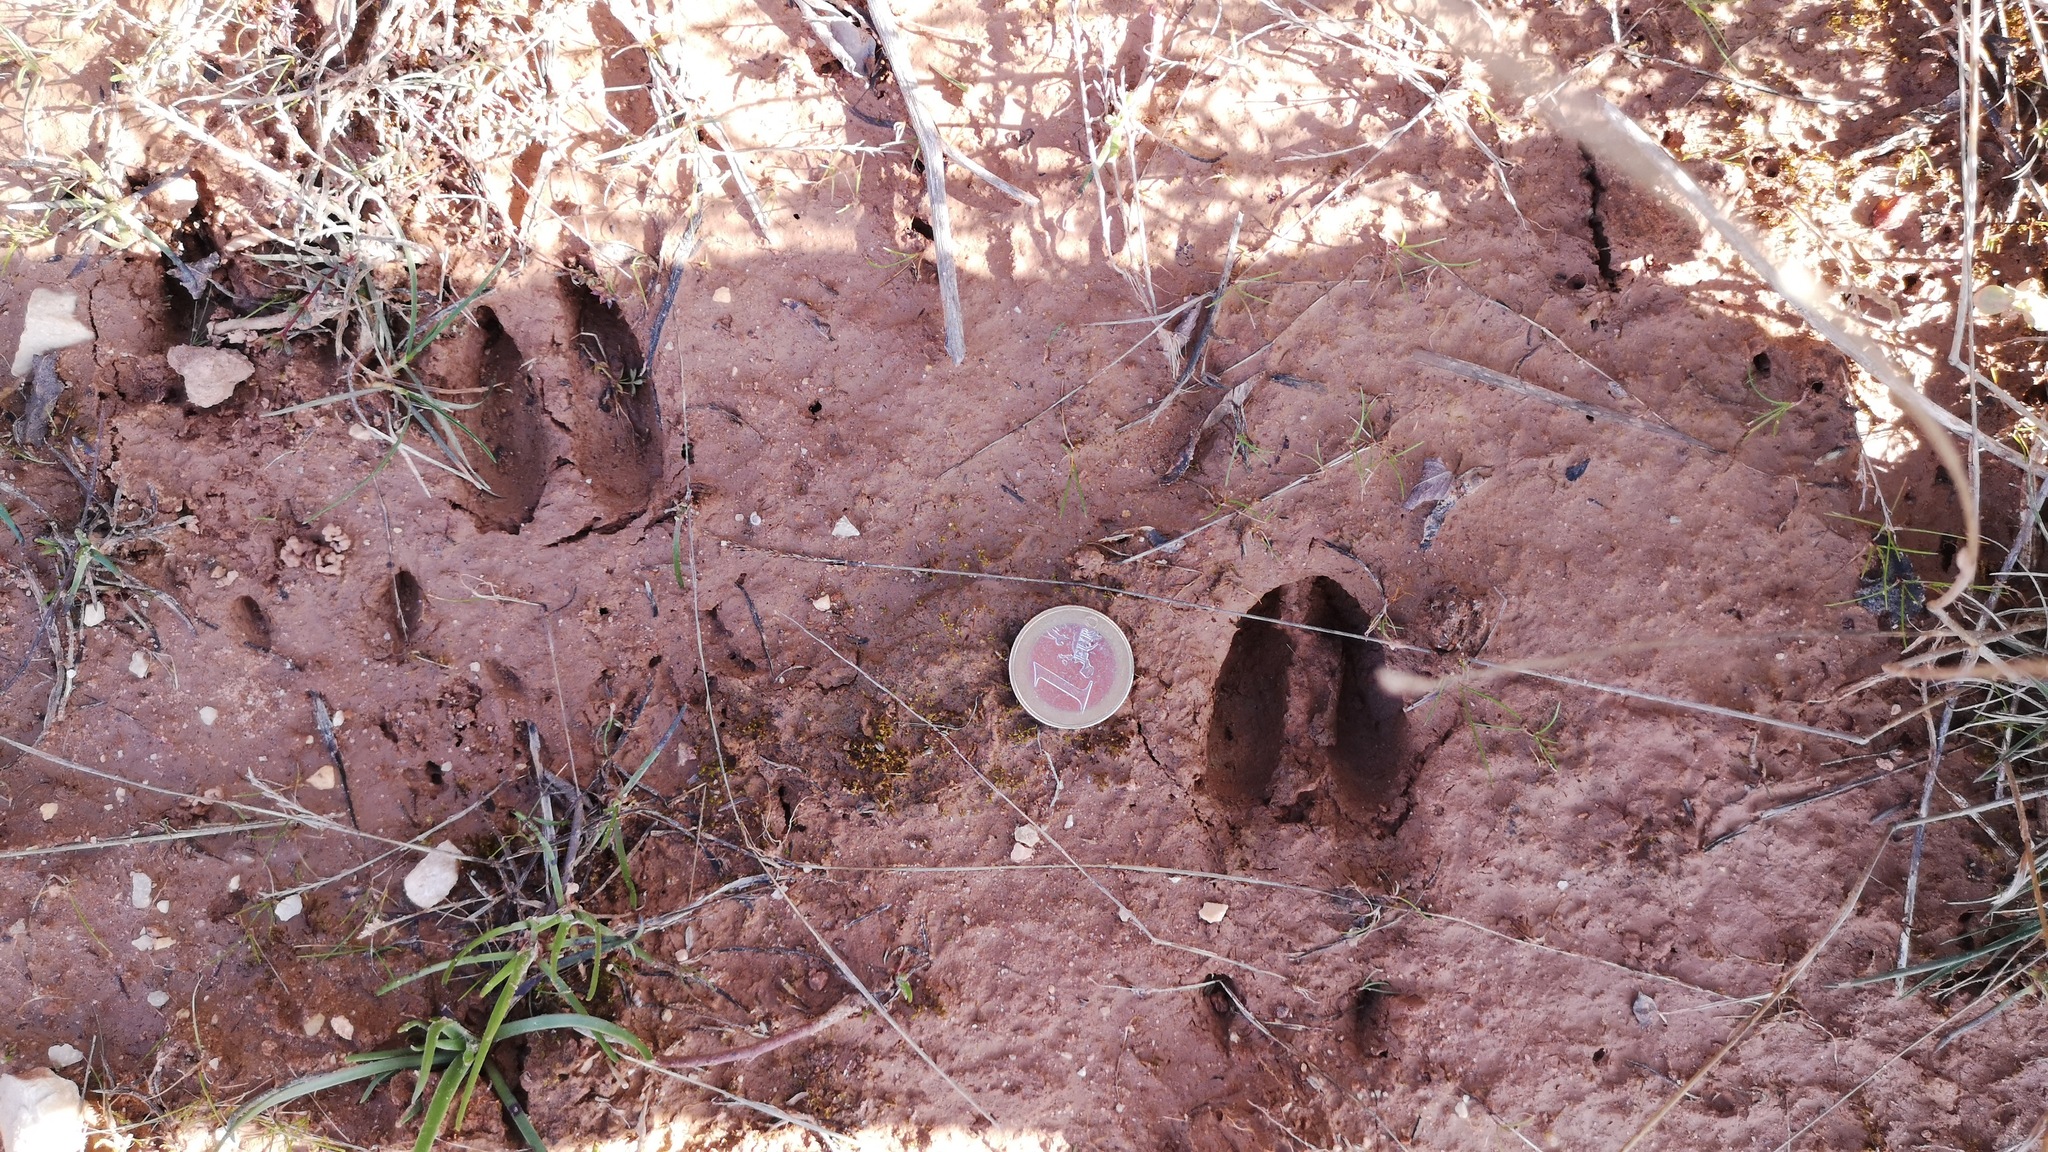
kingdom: Animalia
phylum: Chordata
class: Mammalia
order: Artiodactyla
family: Cervidae
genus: Capreolus
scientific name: Capreolus capreolus
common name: Western roe deer
